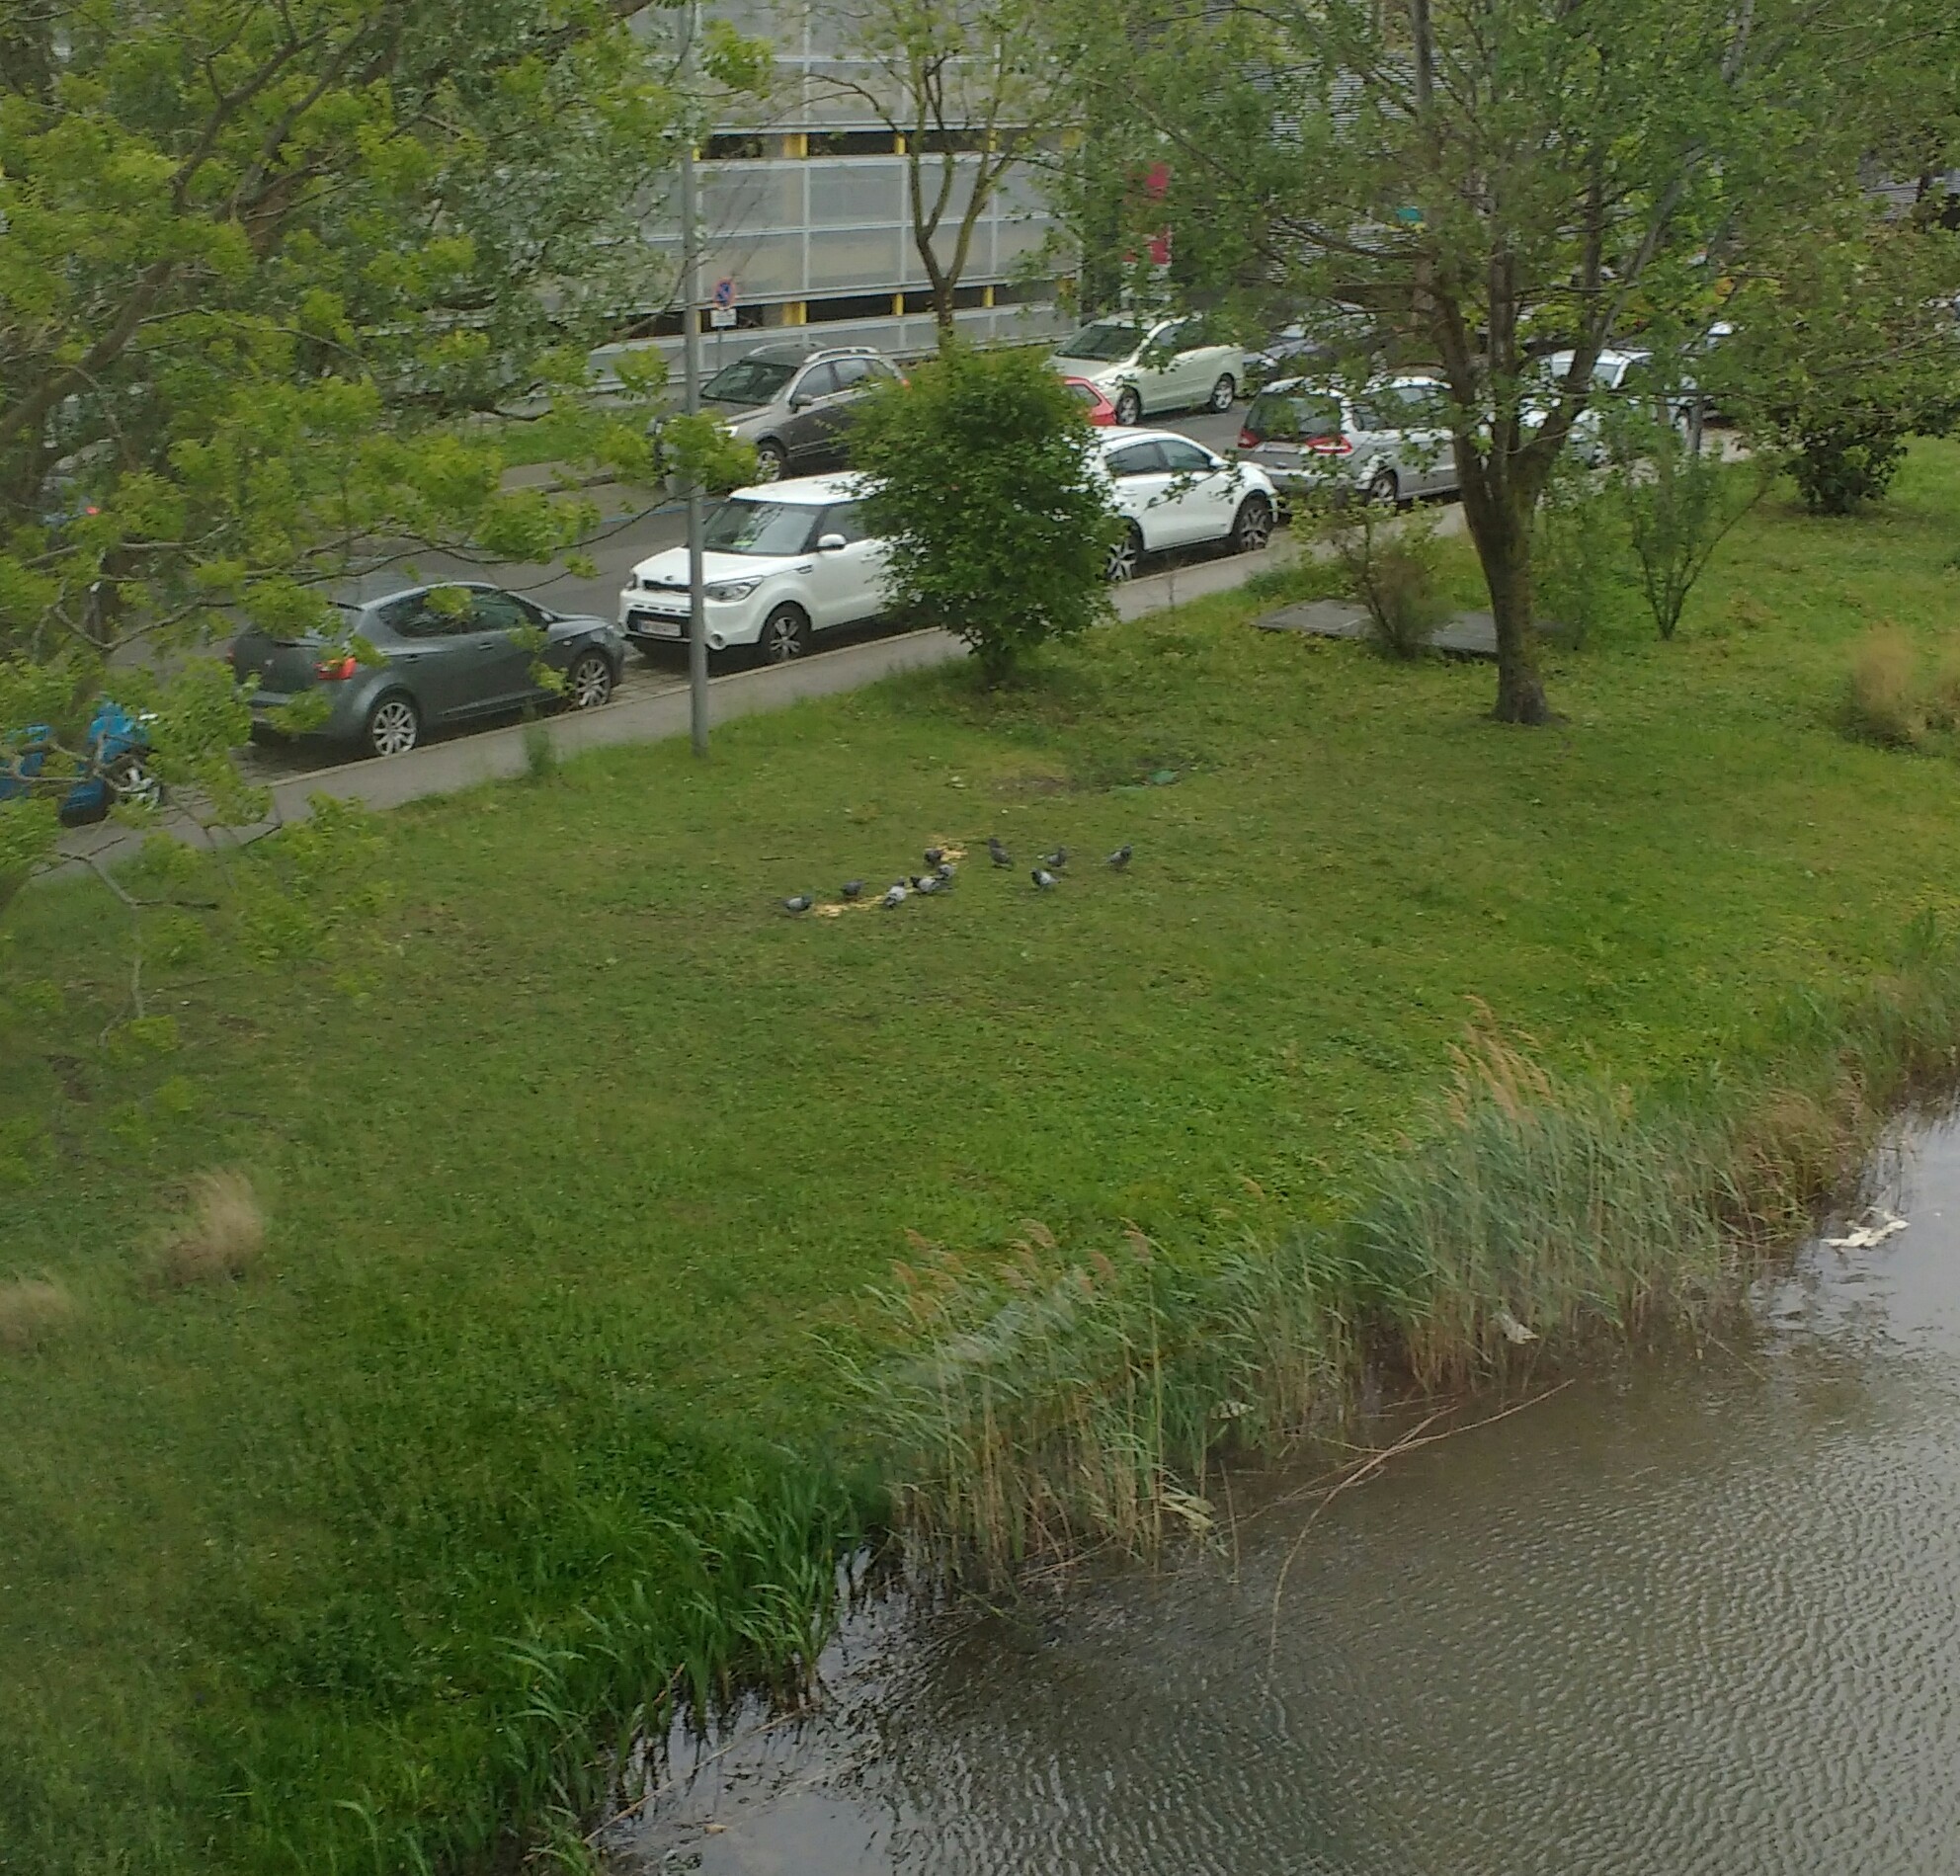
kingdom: Animalia
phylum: Chordata
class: Aves
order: Columbiformes
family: Columbidae
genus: Columba
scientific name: Columba livia
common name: Rock pigeon
